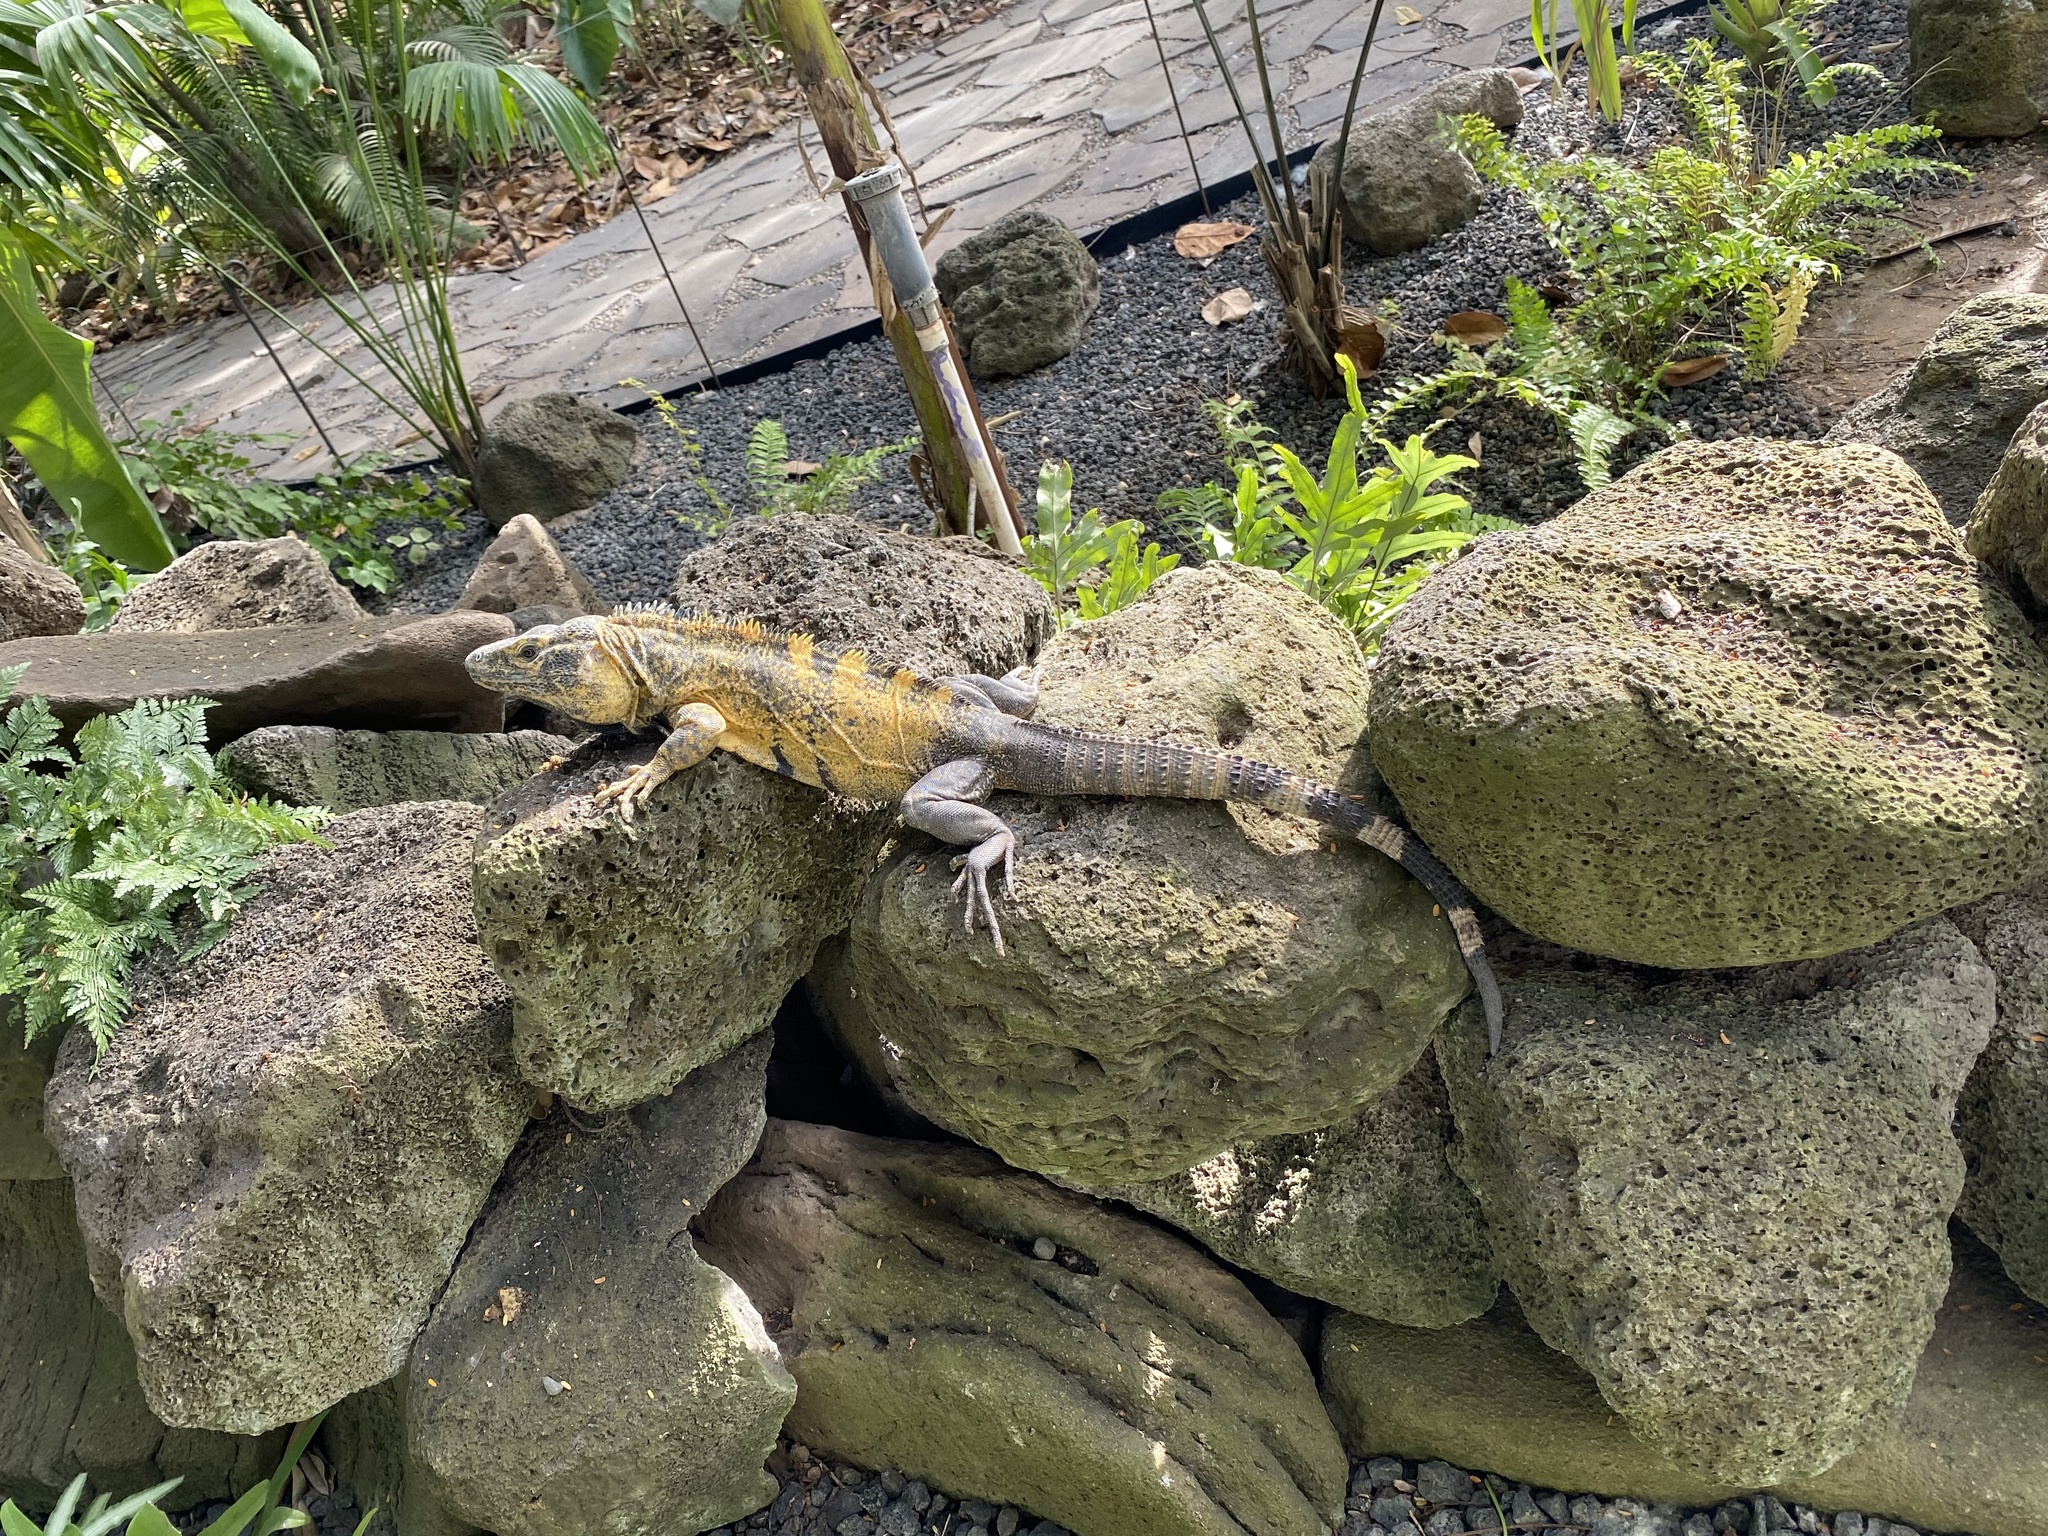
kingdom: Animalia
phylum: Chordata
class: Squamata
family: Iguanidae
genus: Ctenosaura
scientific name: Ctenosaura pectinata
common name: Guerreran spiny-tailed iguana
